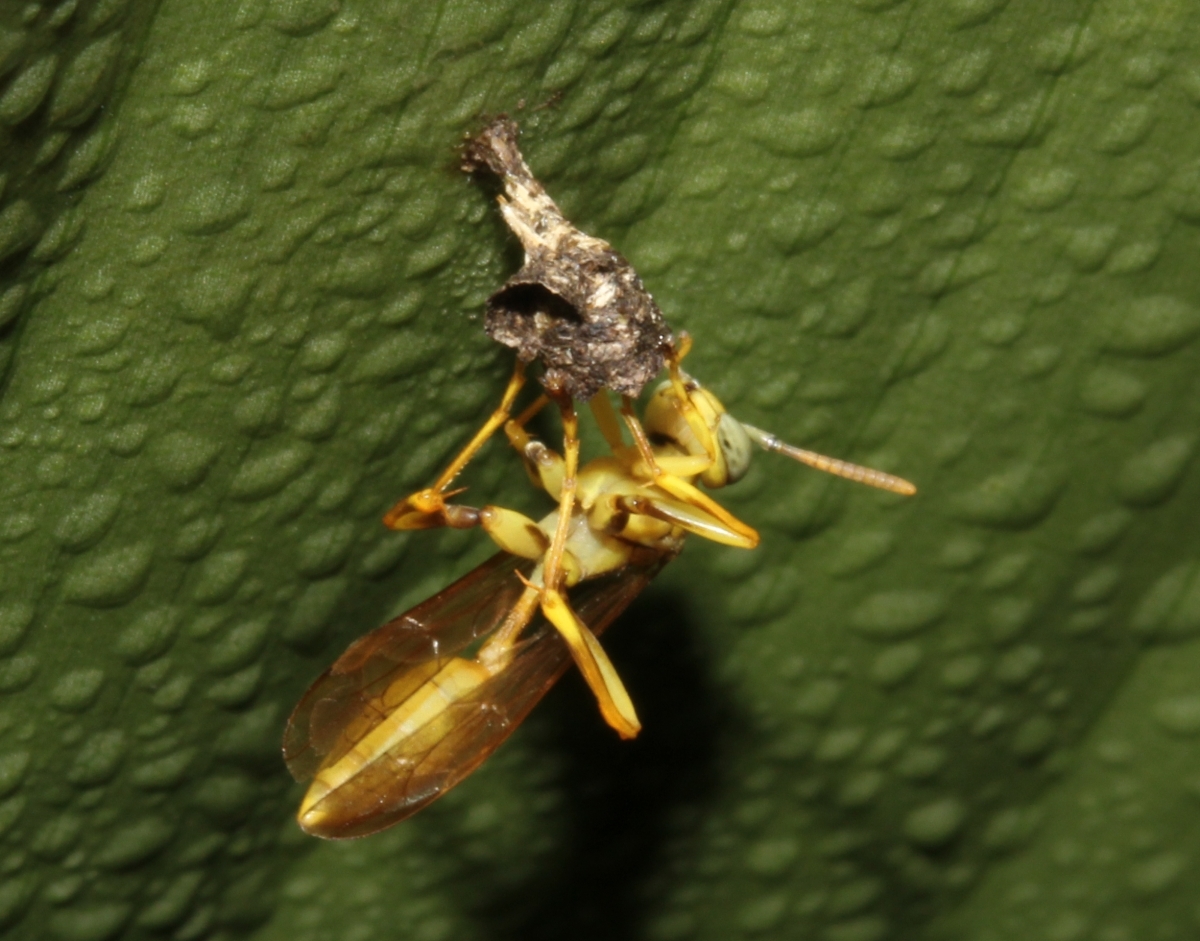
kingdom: Animalia
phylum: Arthropoda
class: Insecta
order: Hymenoptera
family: Vespidae
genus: Mischocyttarus
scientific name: Mischocyttarus
